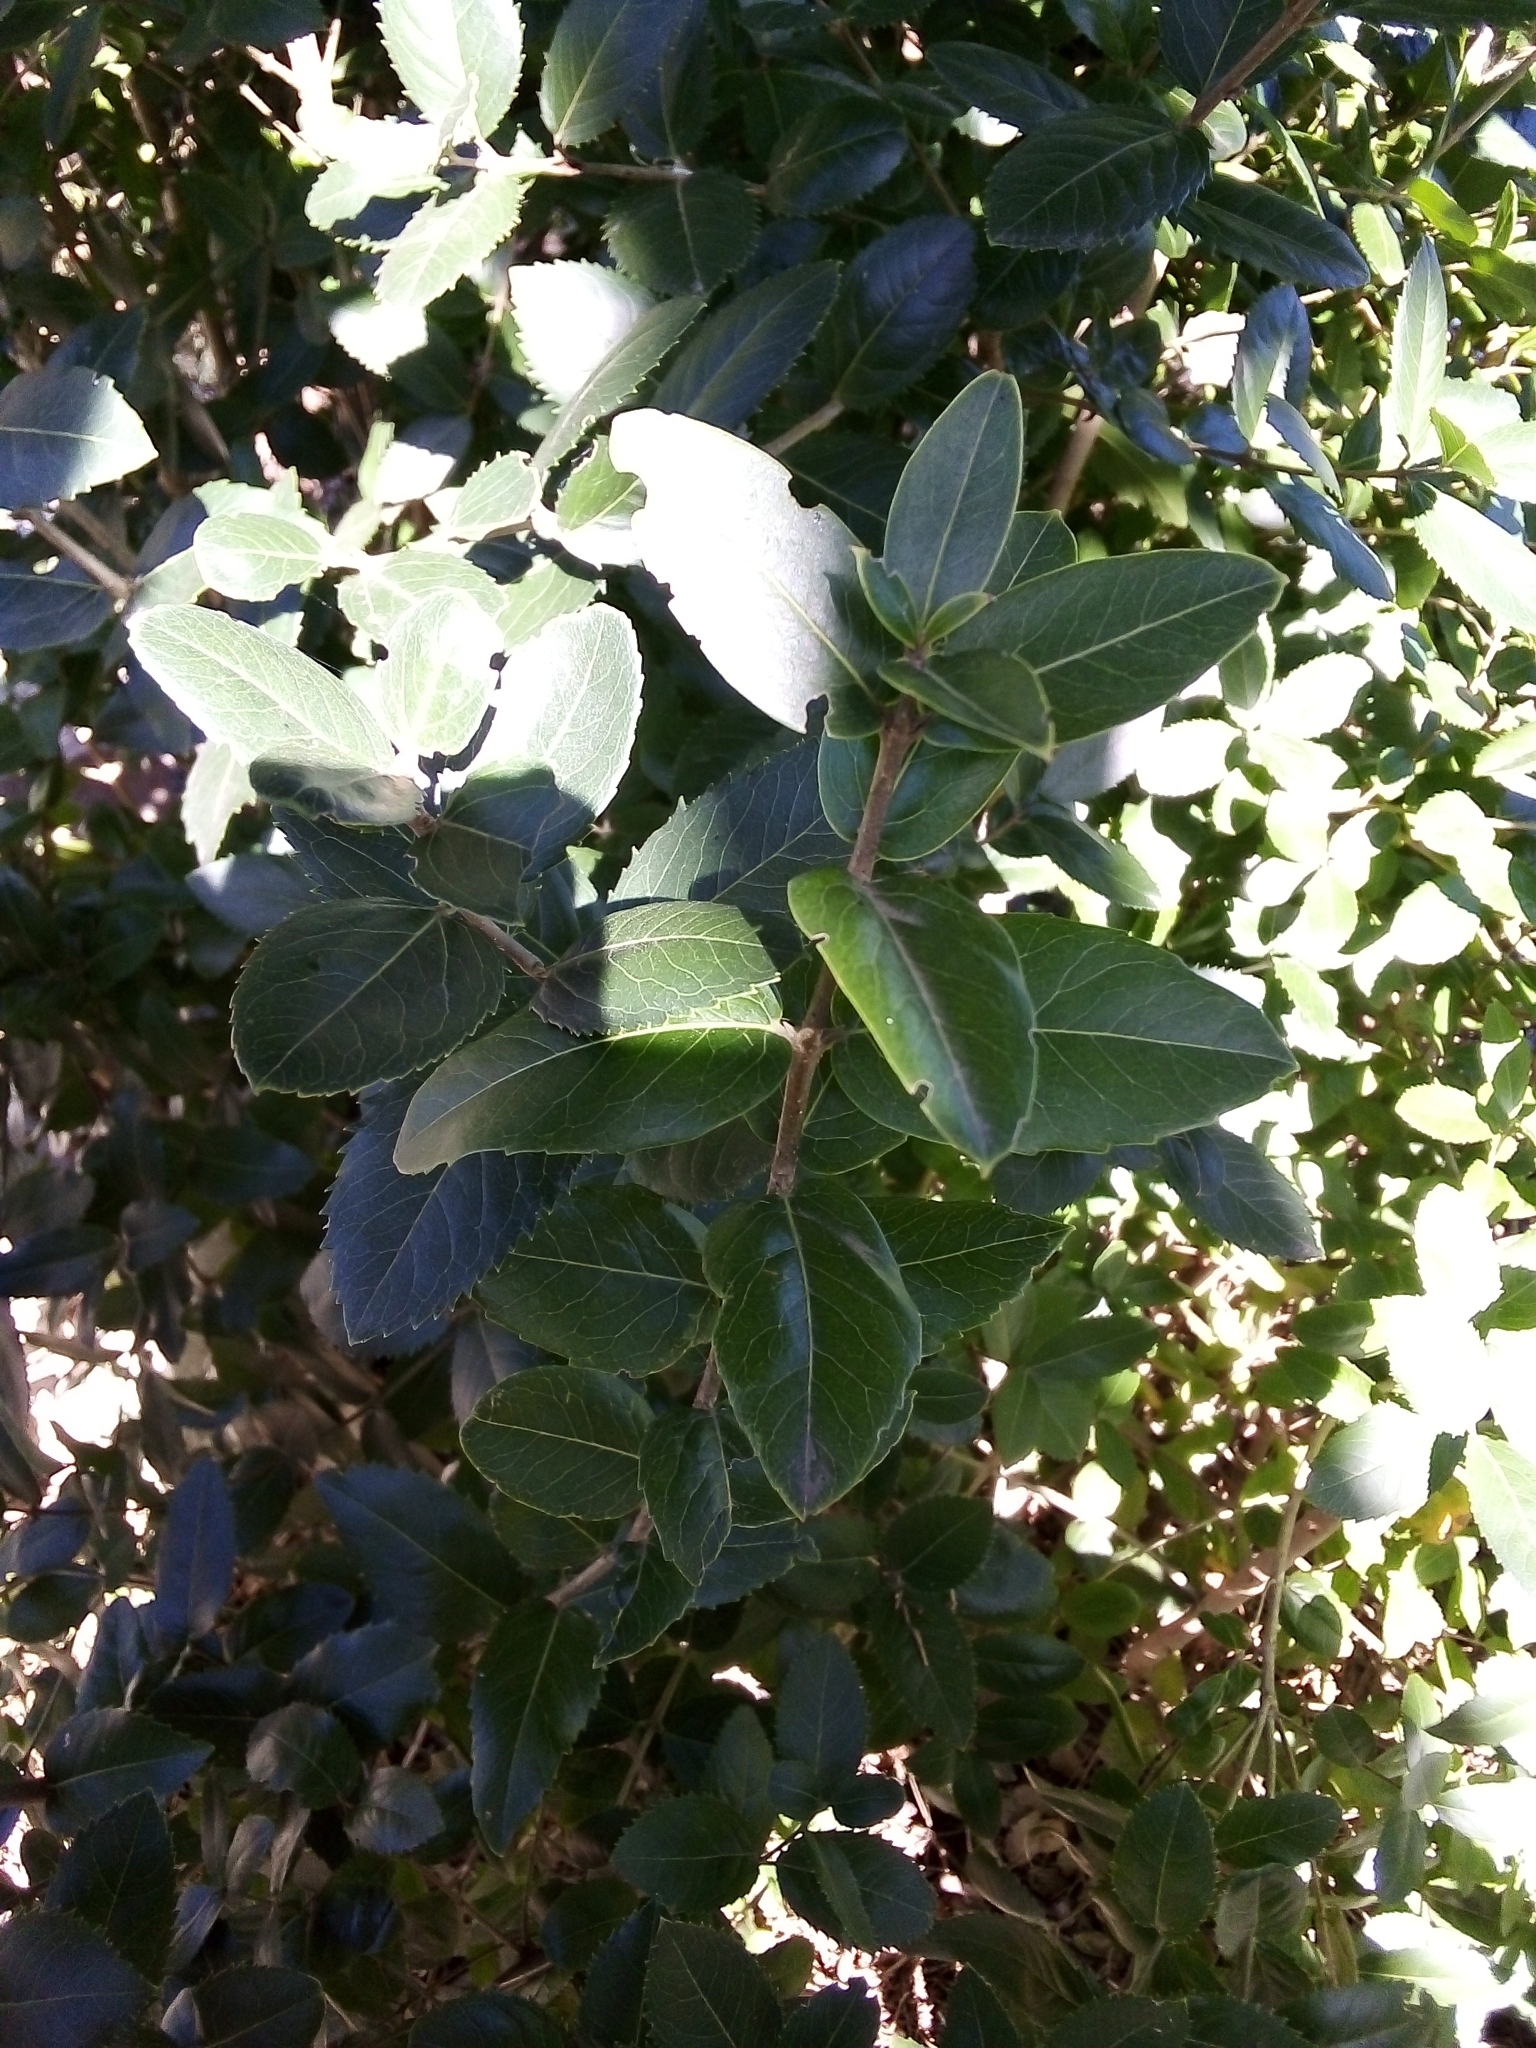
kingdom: Plantae
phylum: Tracheophyta
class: Magnoliopsida
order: Lamiales
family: Oleaceae
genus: Phillyrea
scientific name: Phillyrea latifolia
